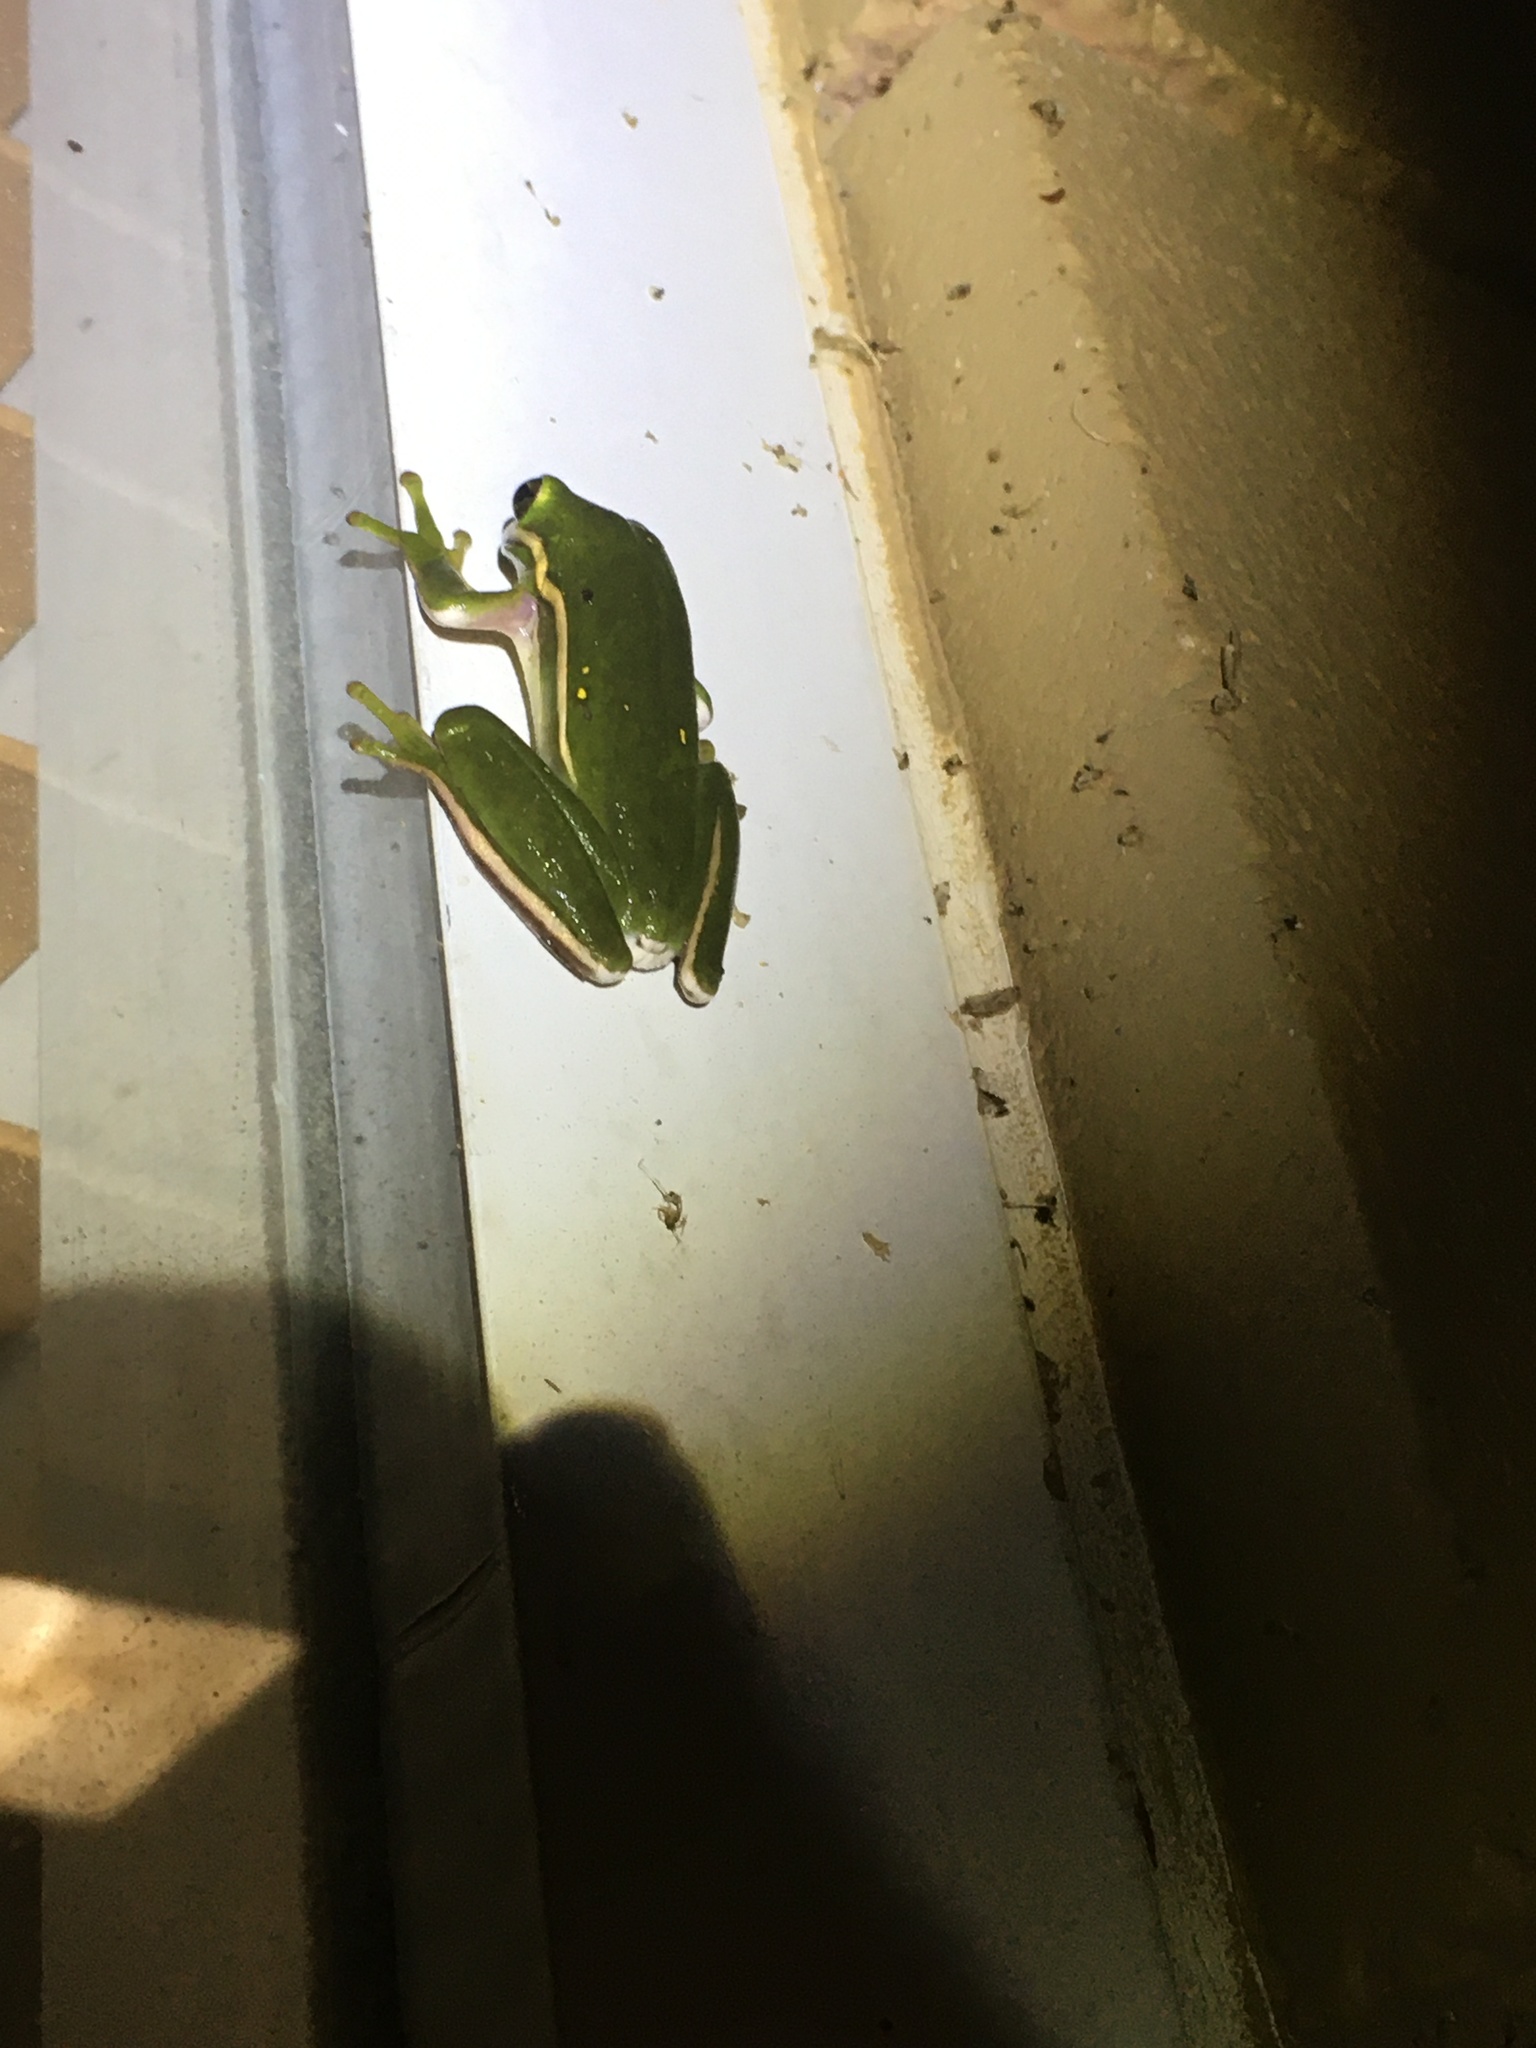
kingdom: Animalia
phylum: Chordata
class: Amphibia
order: Anura
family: Hylidae
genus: Dryophytes
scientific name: Dryophytes cinereus
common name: Green treefrog
